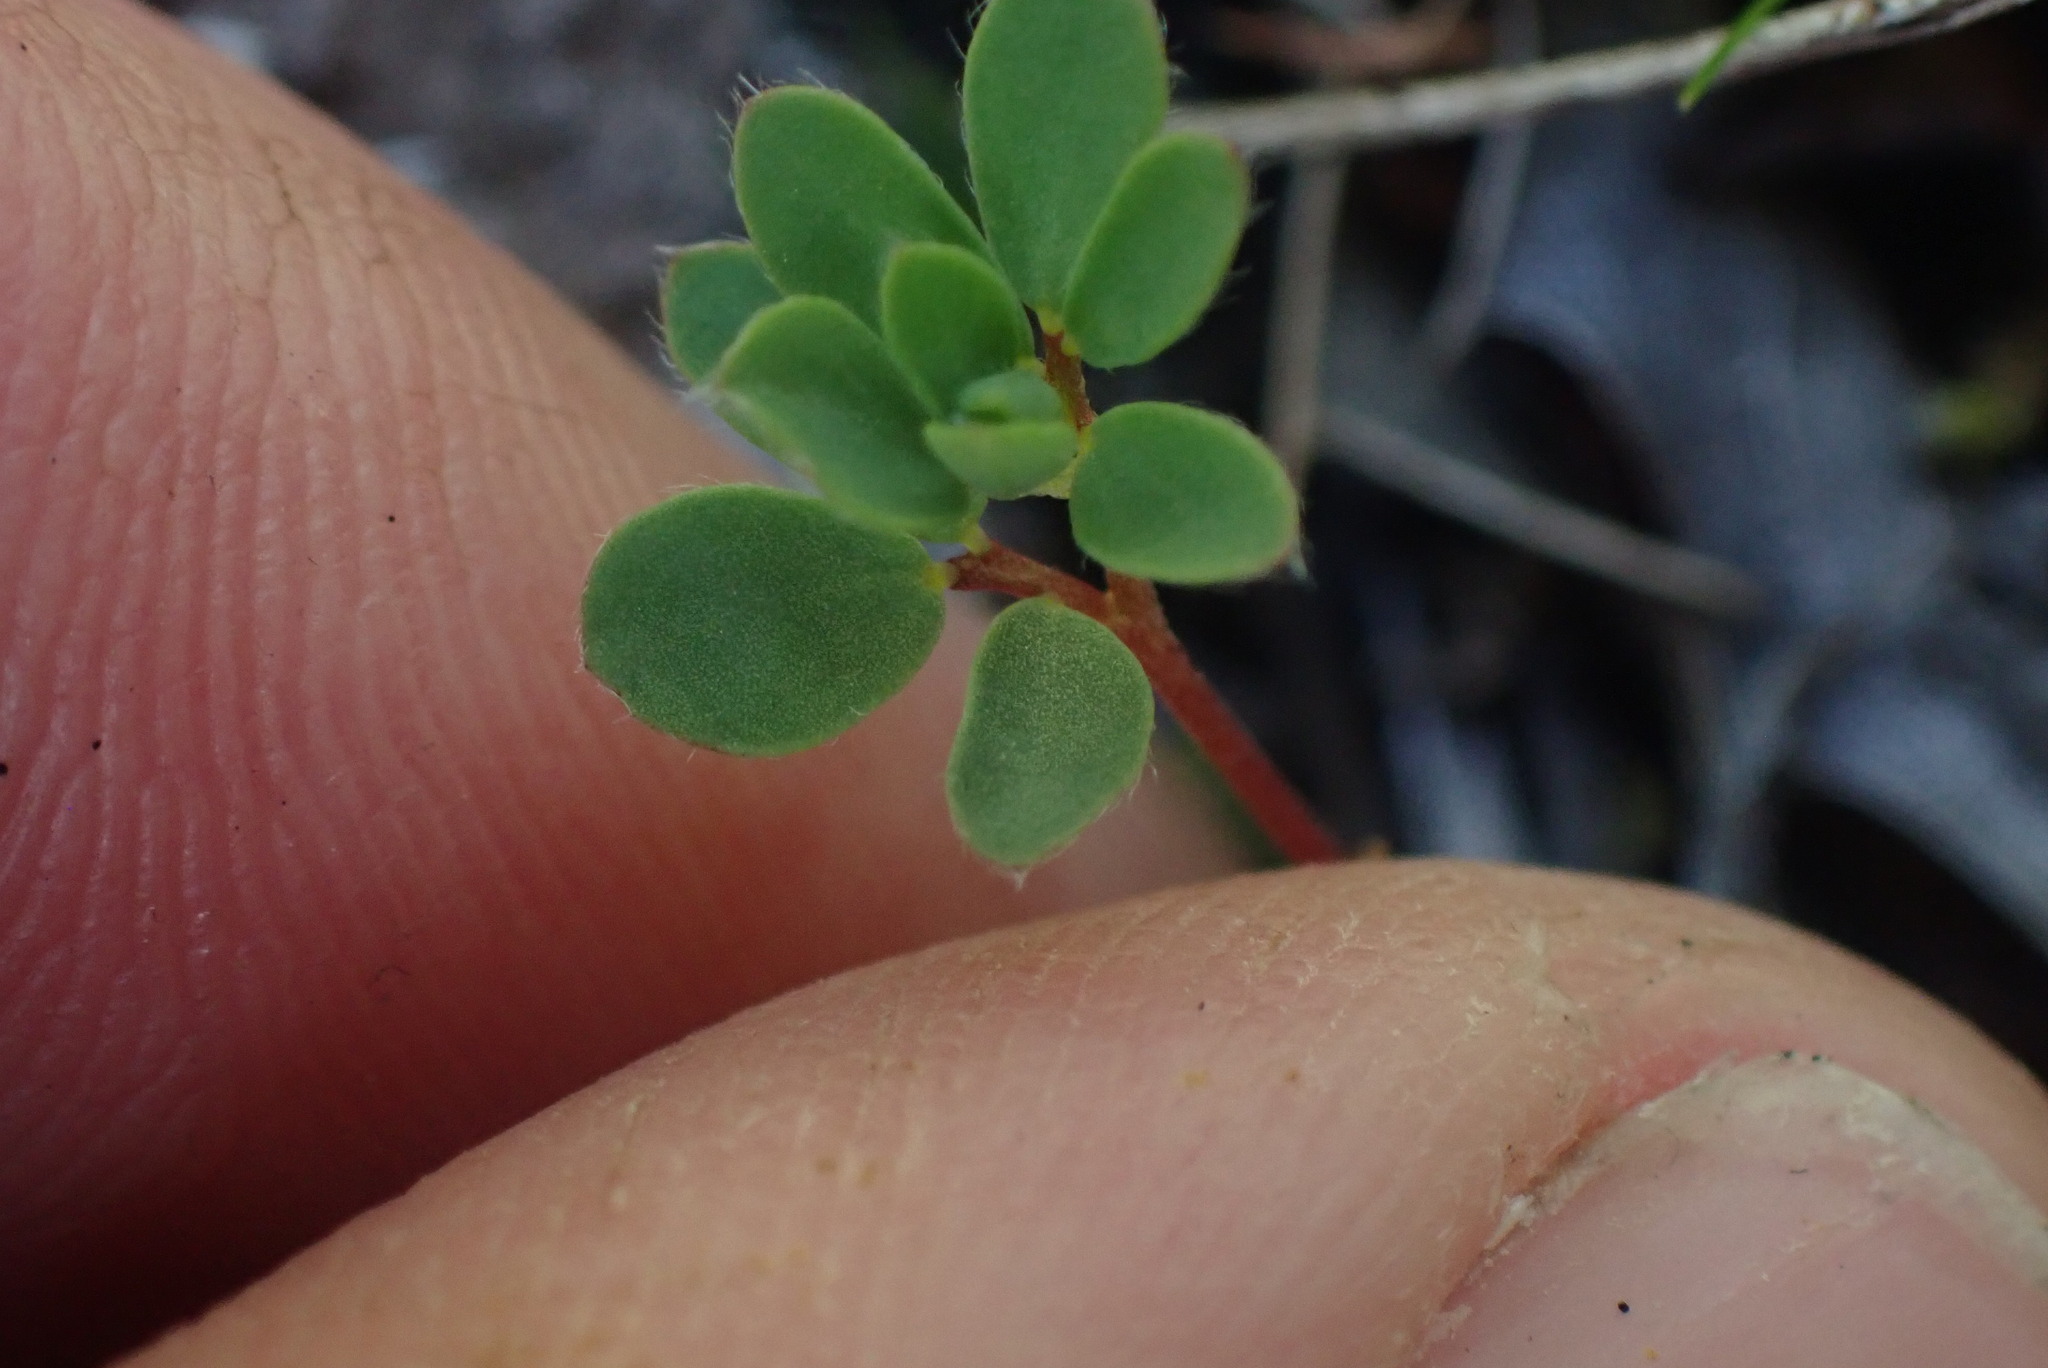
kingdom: Plantae
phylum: Tracheophyta
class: Magnoliopsida
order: Fabales
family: Fabaceae
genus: Acmispon
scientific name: Acmispon parviflorus
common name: Desert deer-vetch
